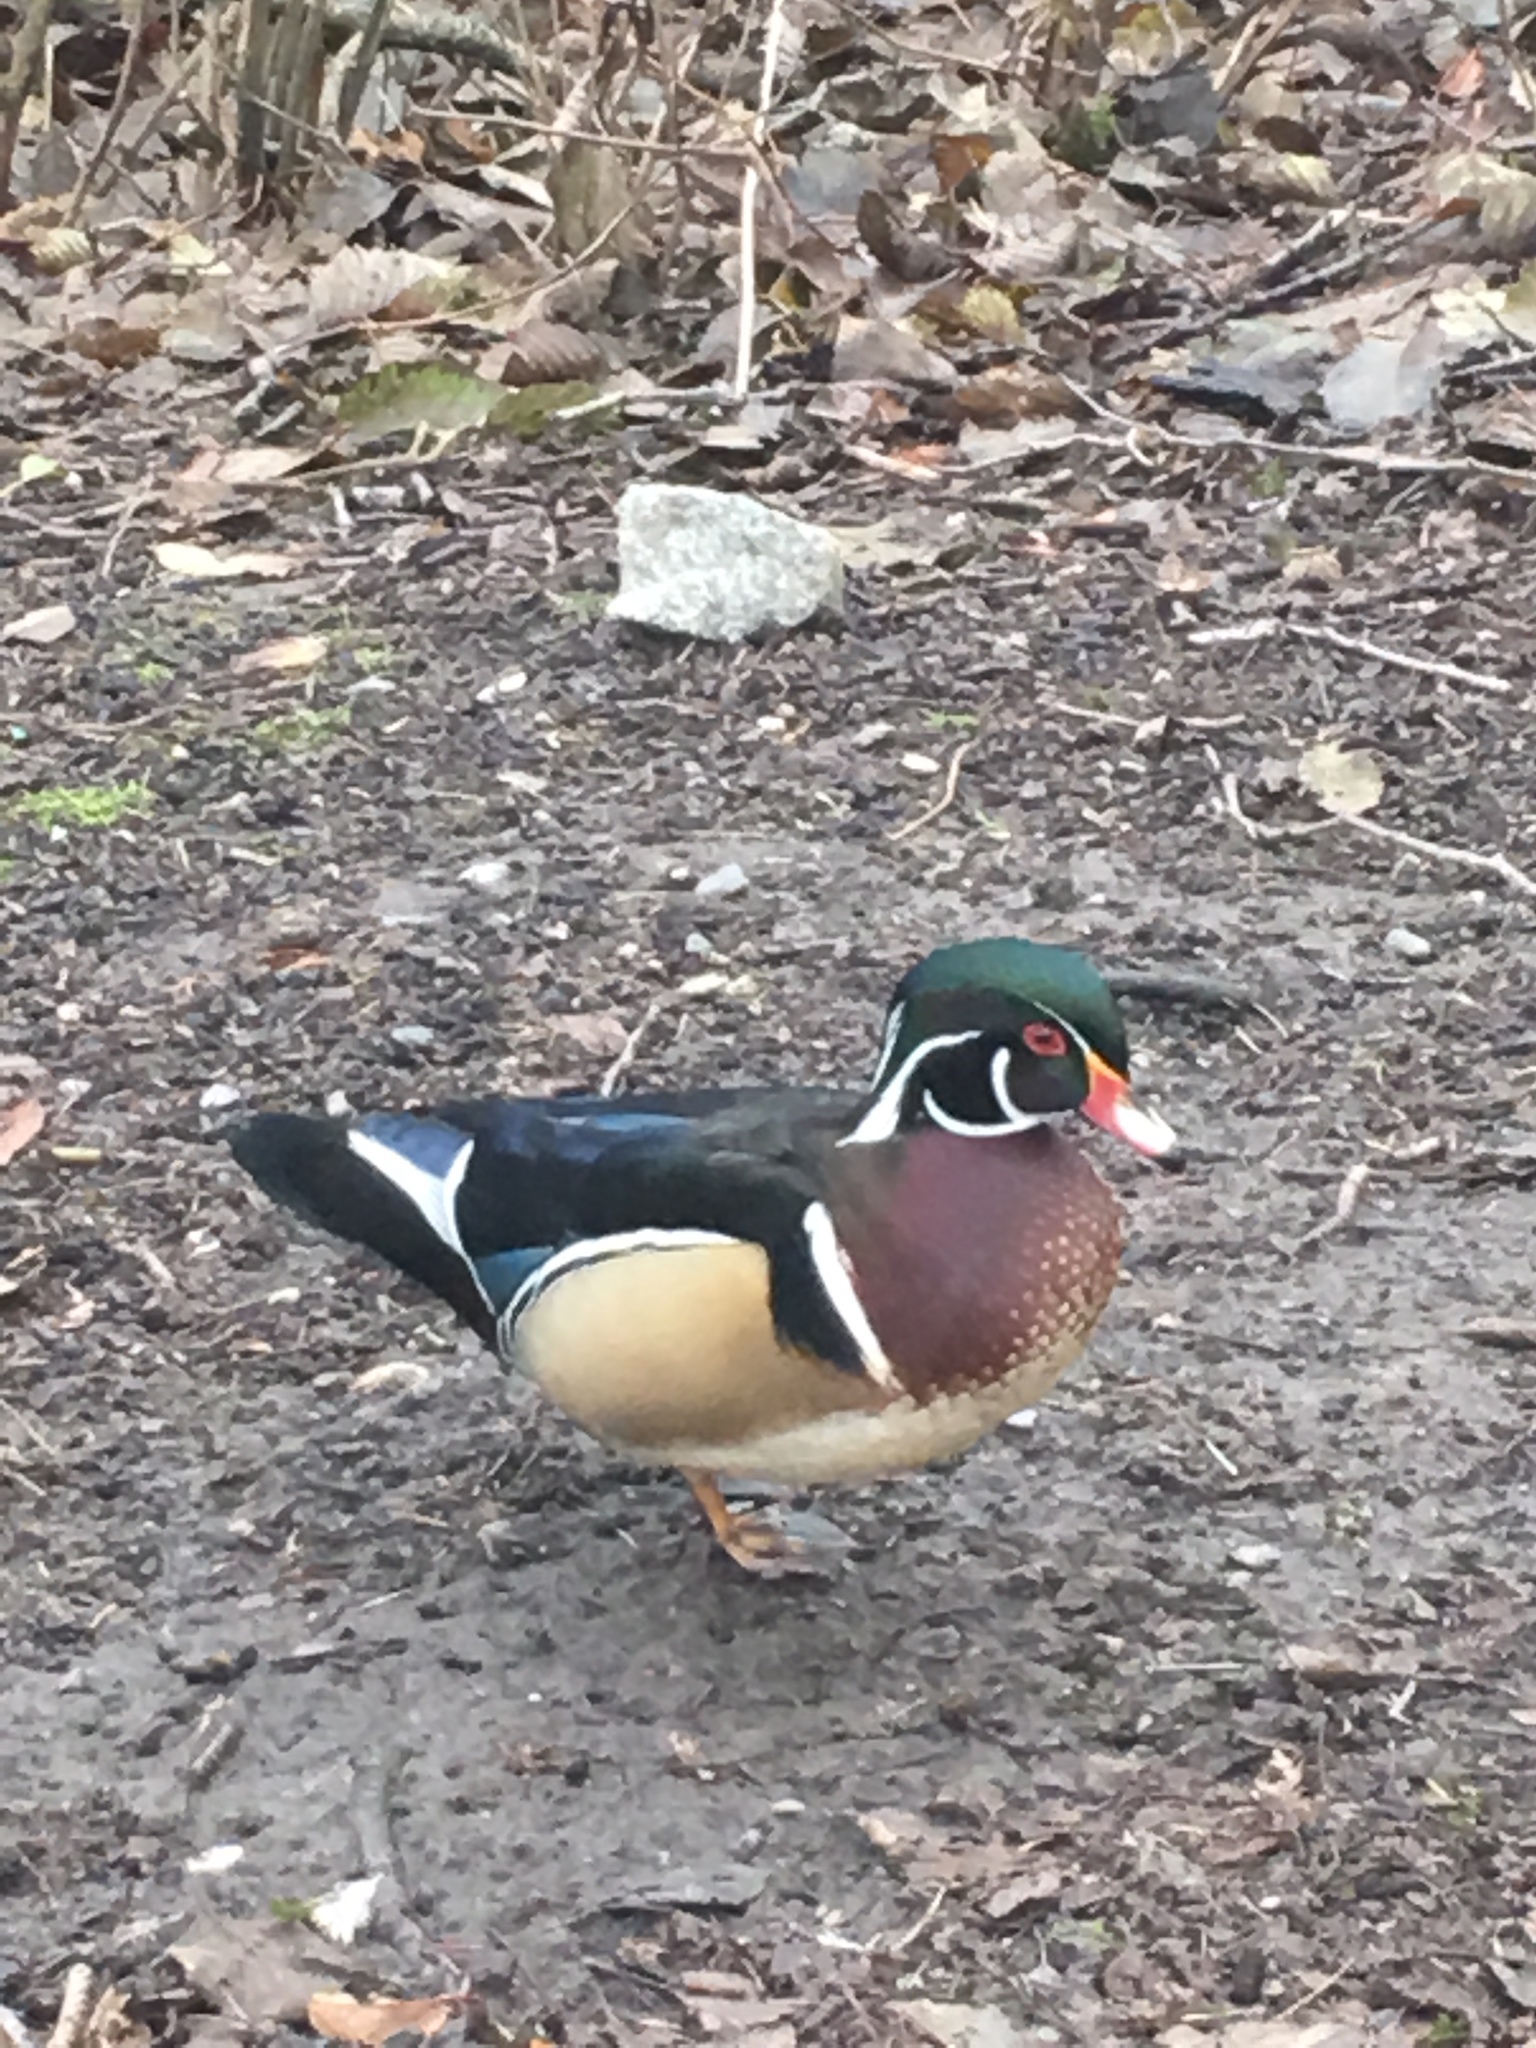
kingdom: Animalia
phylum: Chordata
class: Aves
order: Anseriformes
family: Anatidae
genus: Aix
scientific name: Aix sponsa
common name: Wood duck
